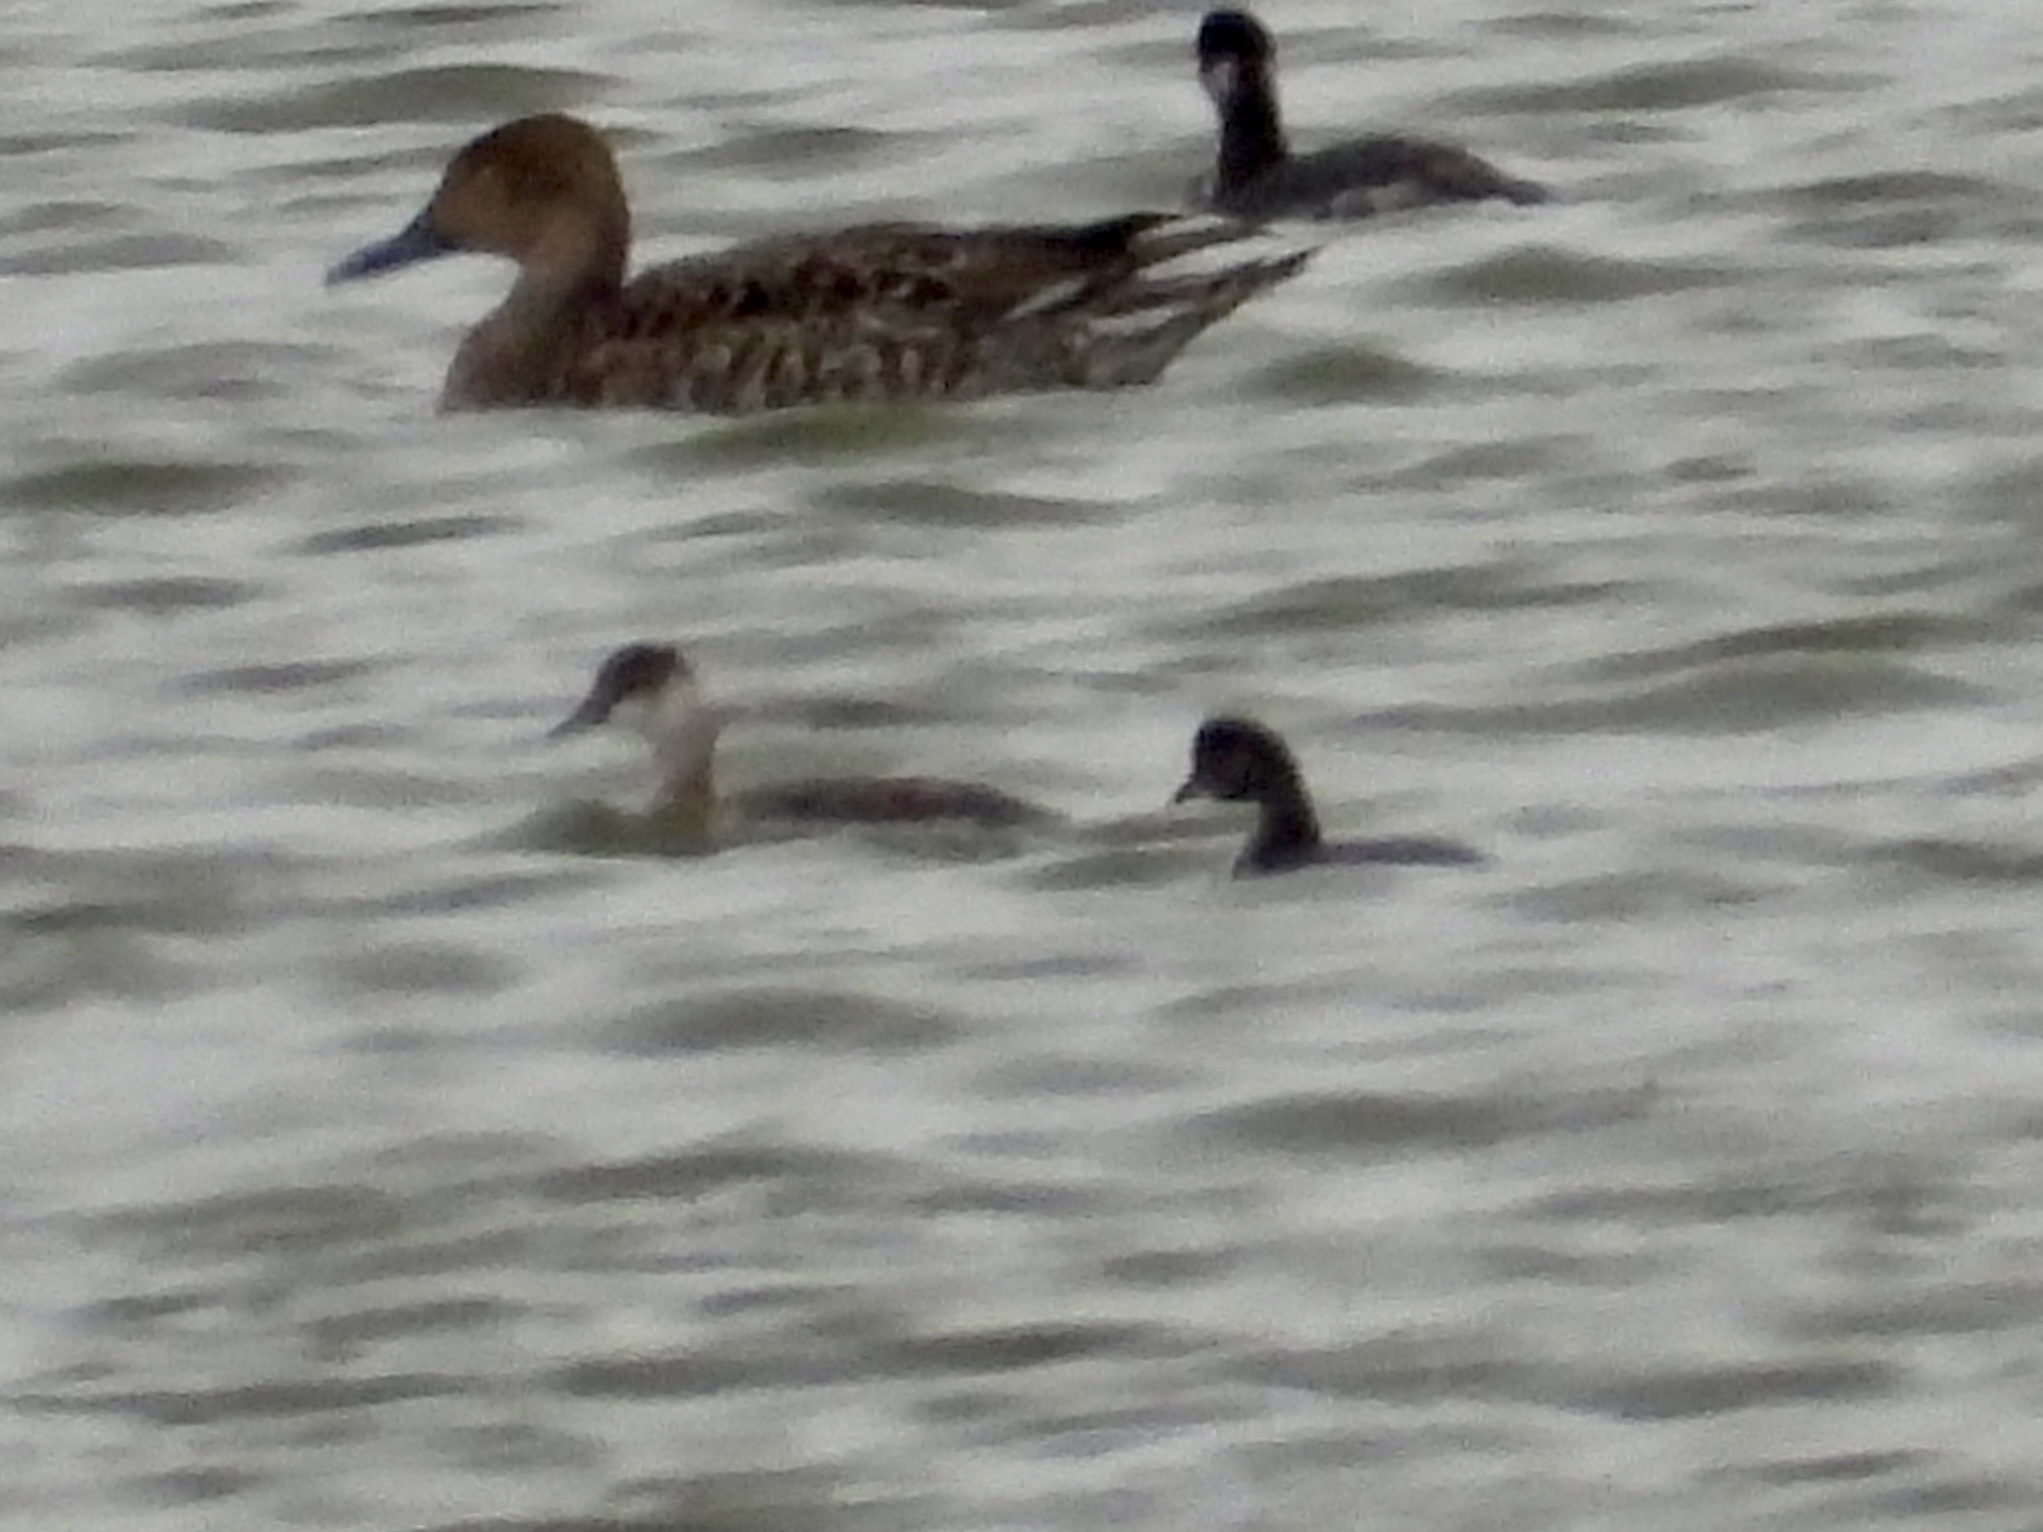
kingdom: Animalia
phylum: Chordata
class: Aves
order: Podicipediformes
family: Podicipedidae
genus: Podiceps
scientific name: Podiceps nigricollis
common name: Black-necked grebe
